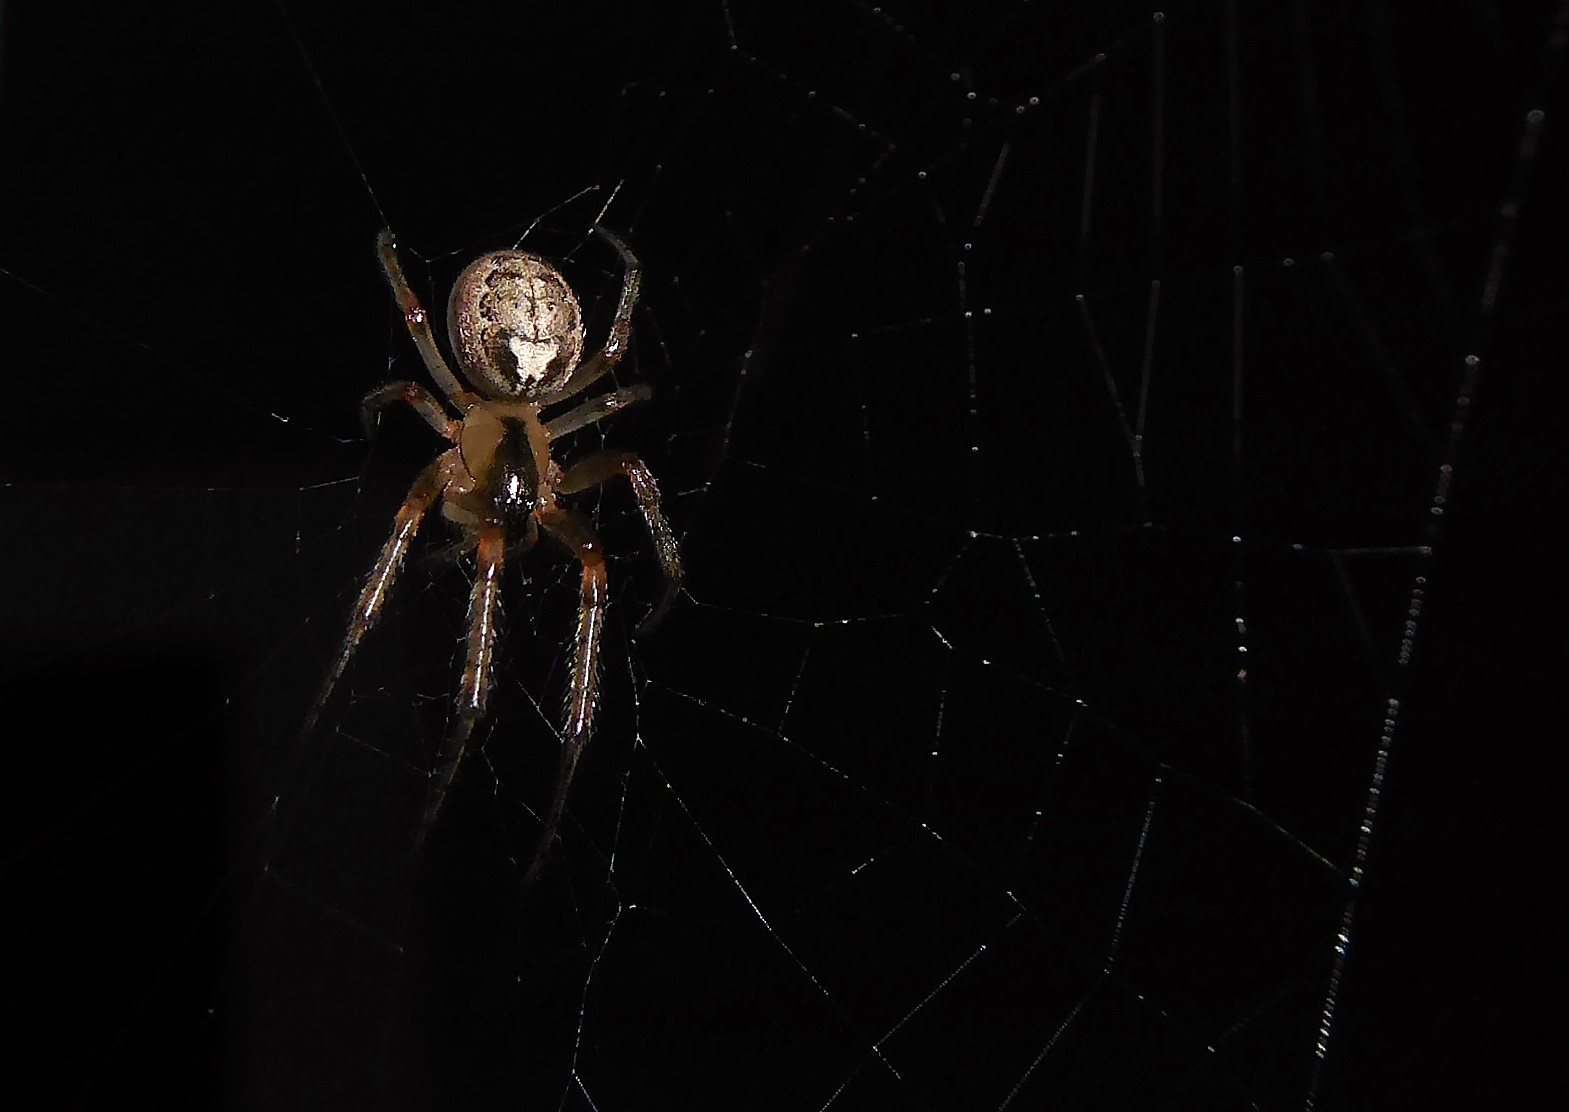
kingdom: Animalia
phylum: Arthropoda
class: Arachnida
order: Araneae
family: Araneidae
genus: Zygiella
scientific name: Zygiella x-notata
